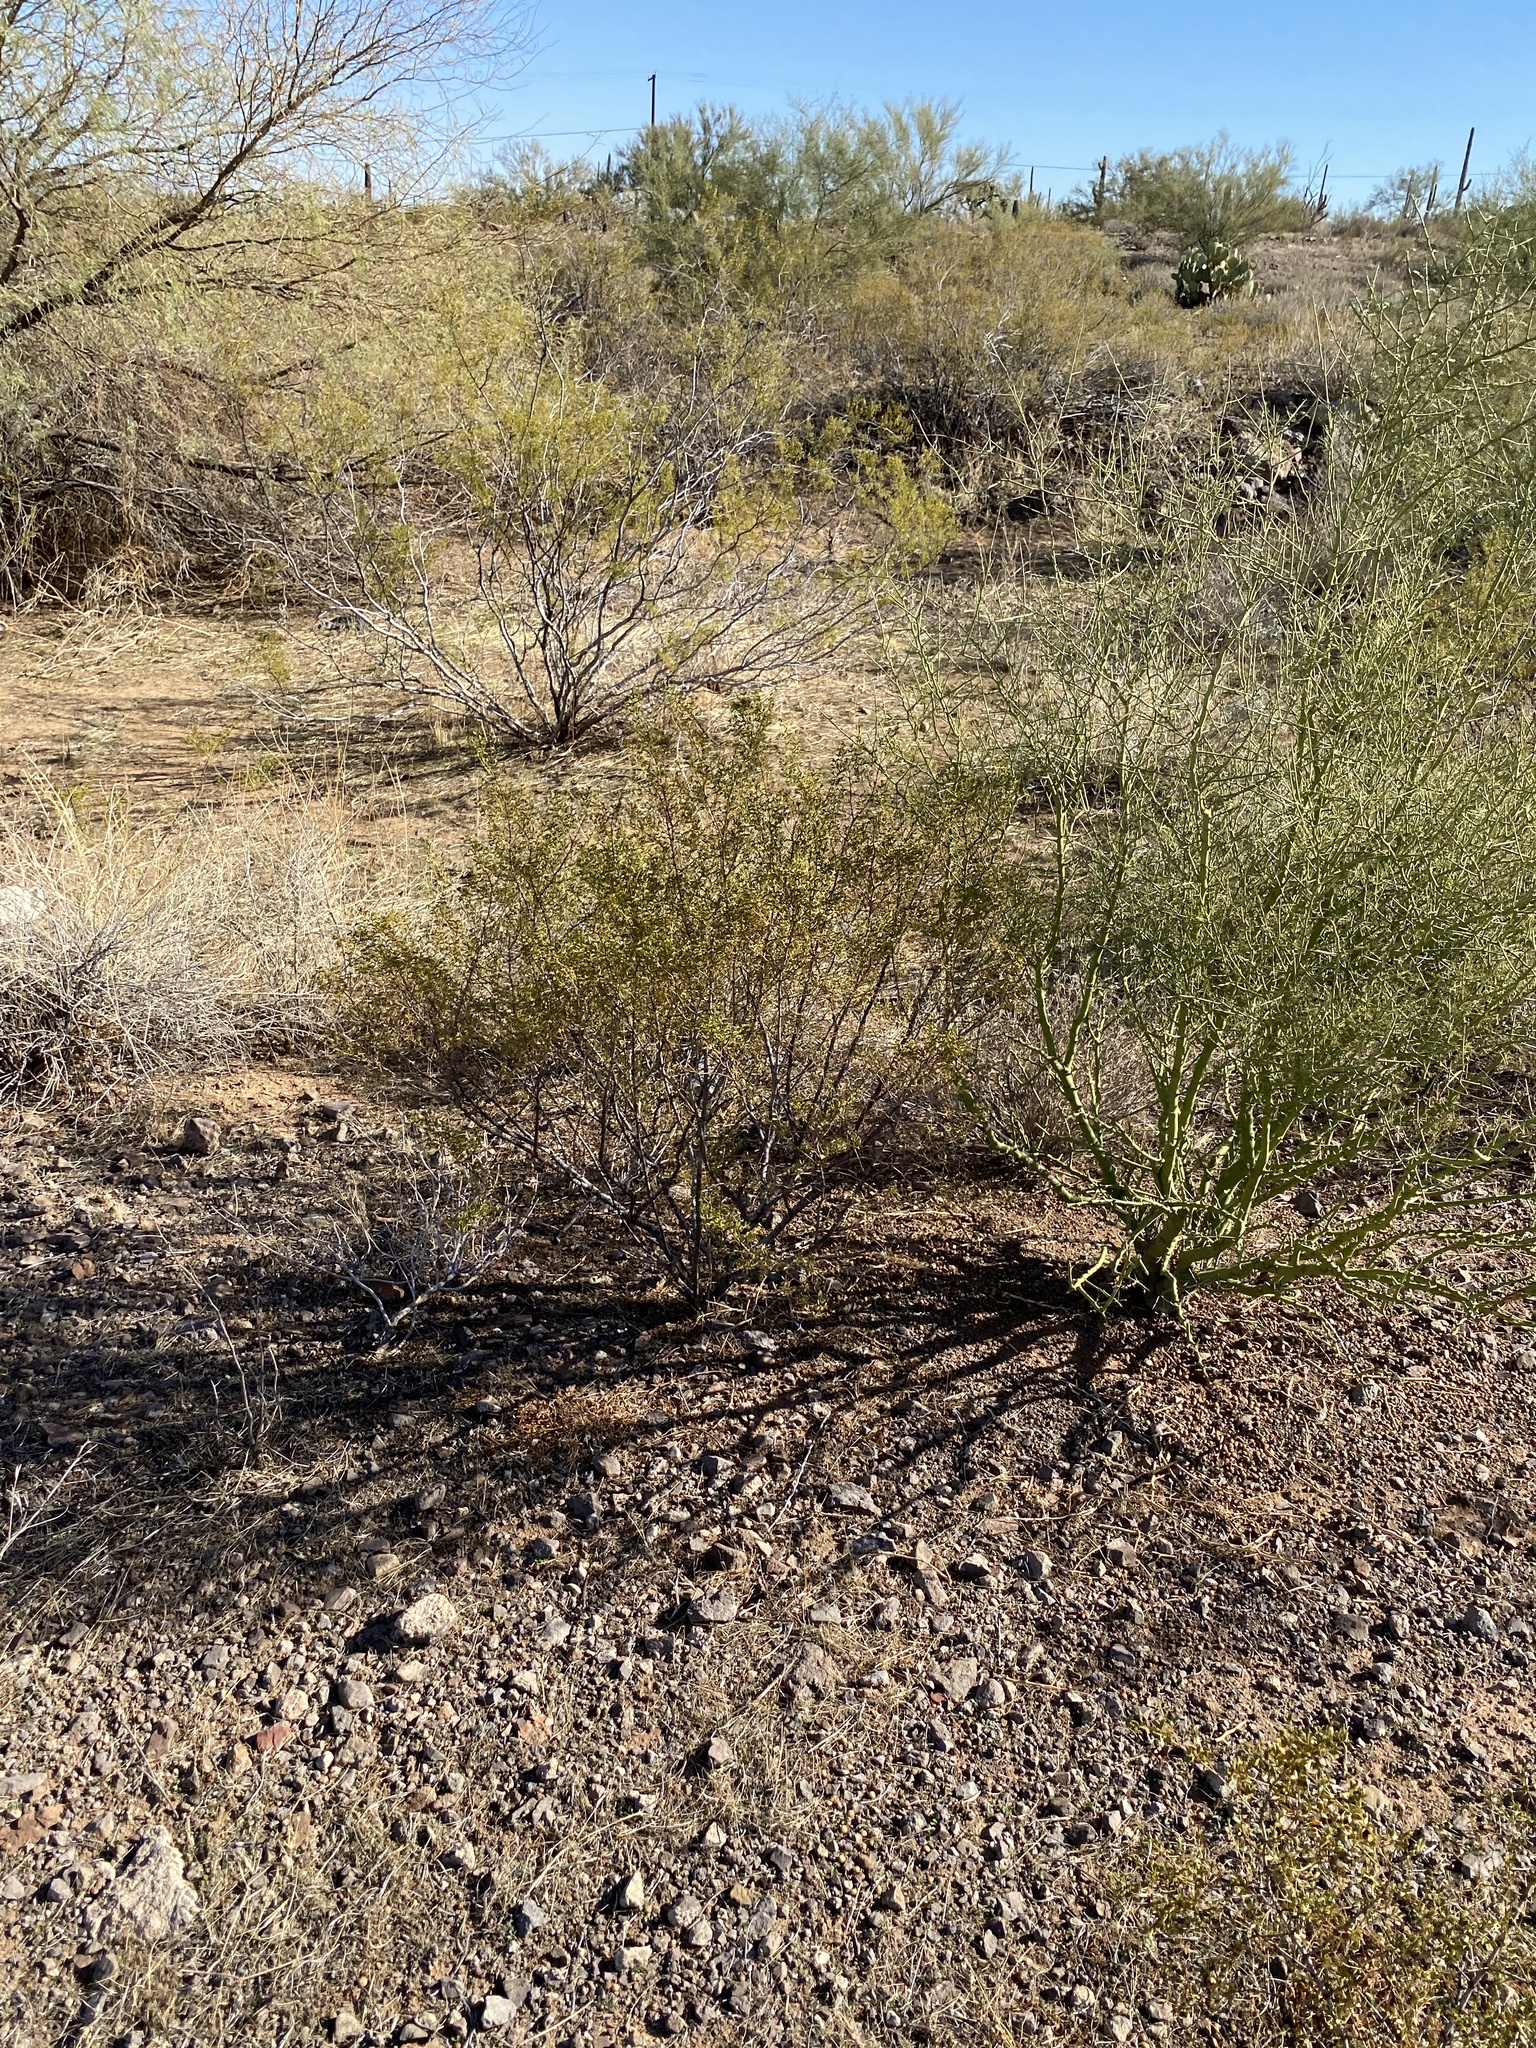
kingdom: Plantae
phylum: Tracheophyta
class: Magnoliopsida
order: Zygophyllales
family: Zygophyllaceae
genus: Larrea
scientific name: Larrea tridentata
